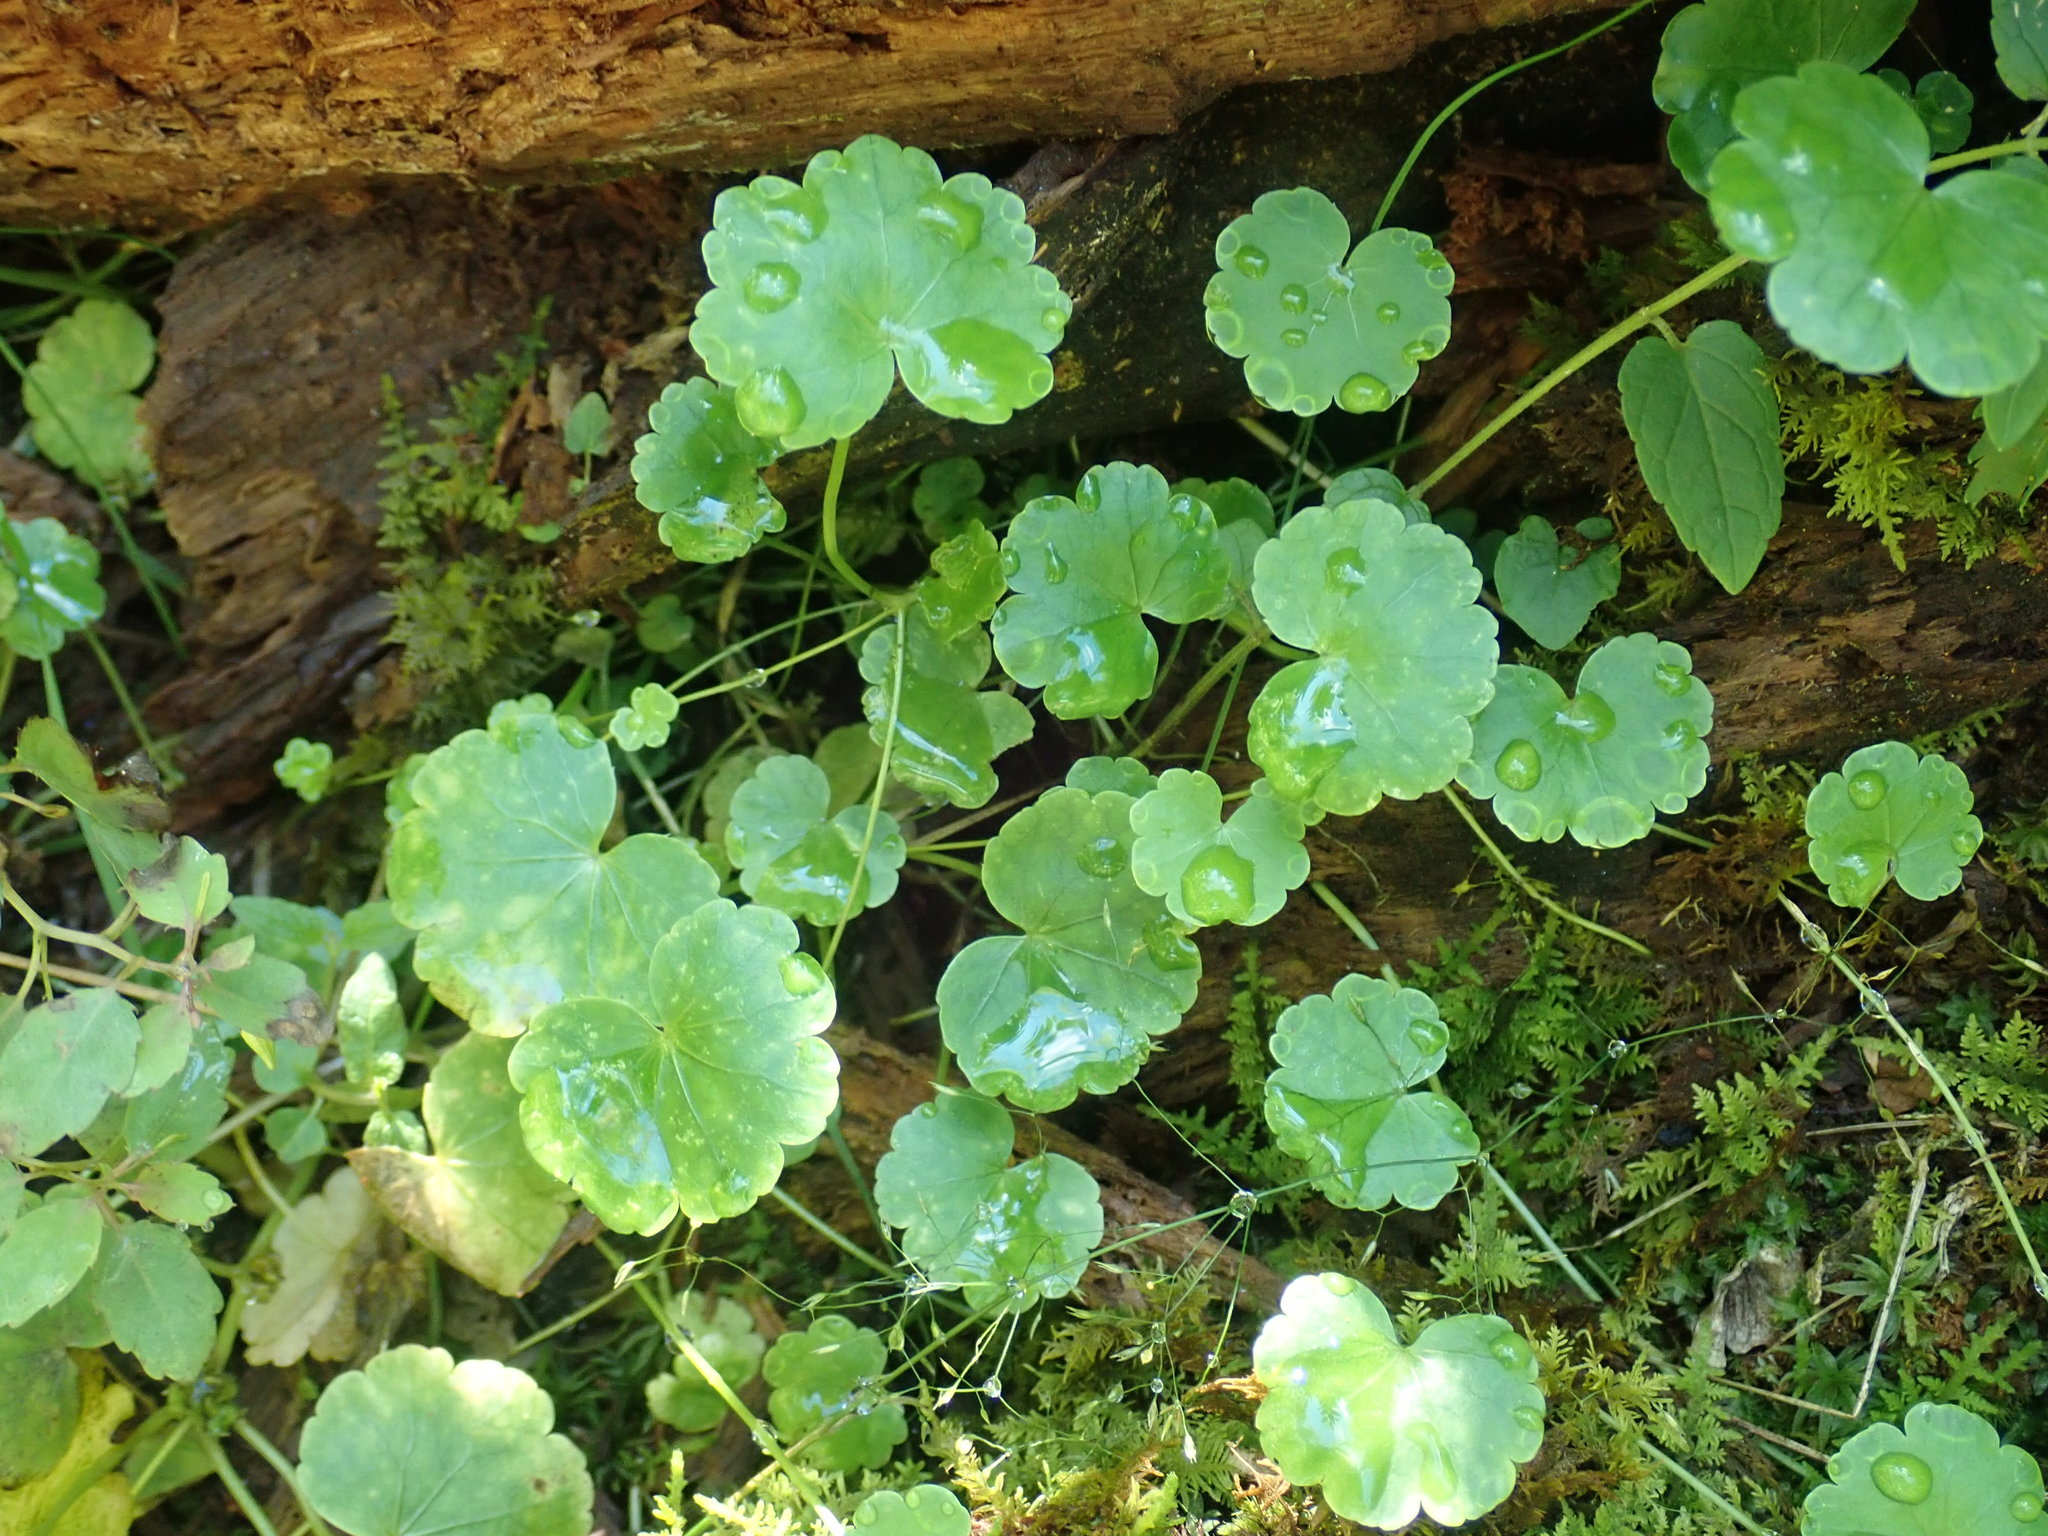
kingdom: Plantae
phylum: Tracheophyta
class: Magnoliopsida
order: Apiales
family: Araliaceae
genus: Hydrocotyle
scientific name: Hydrocotyle americana
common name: American water-pennywort
